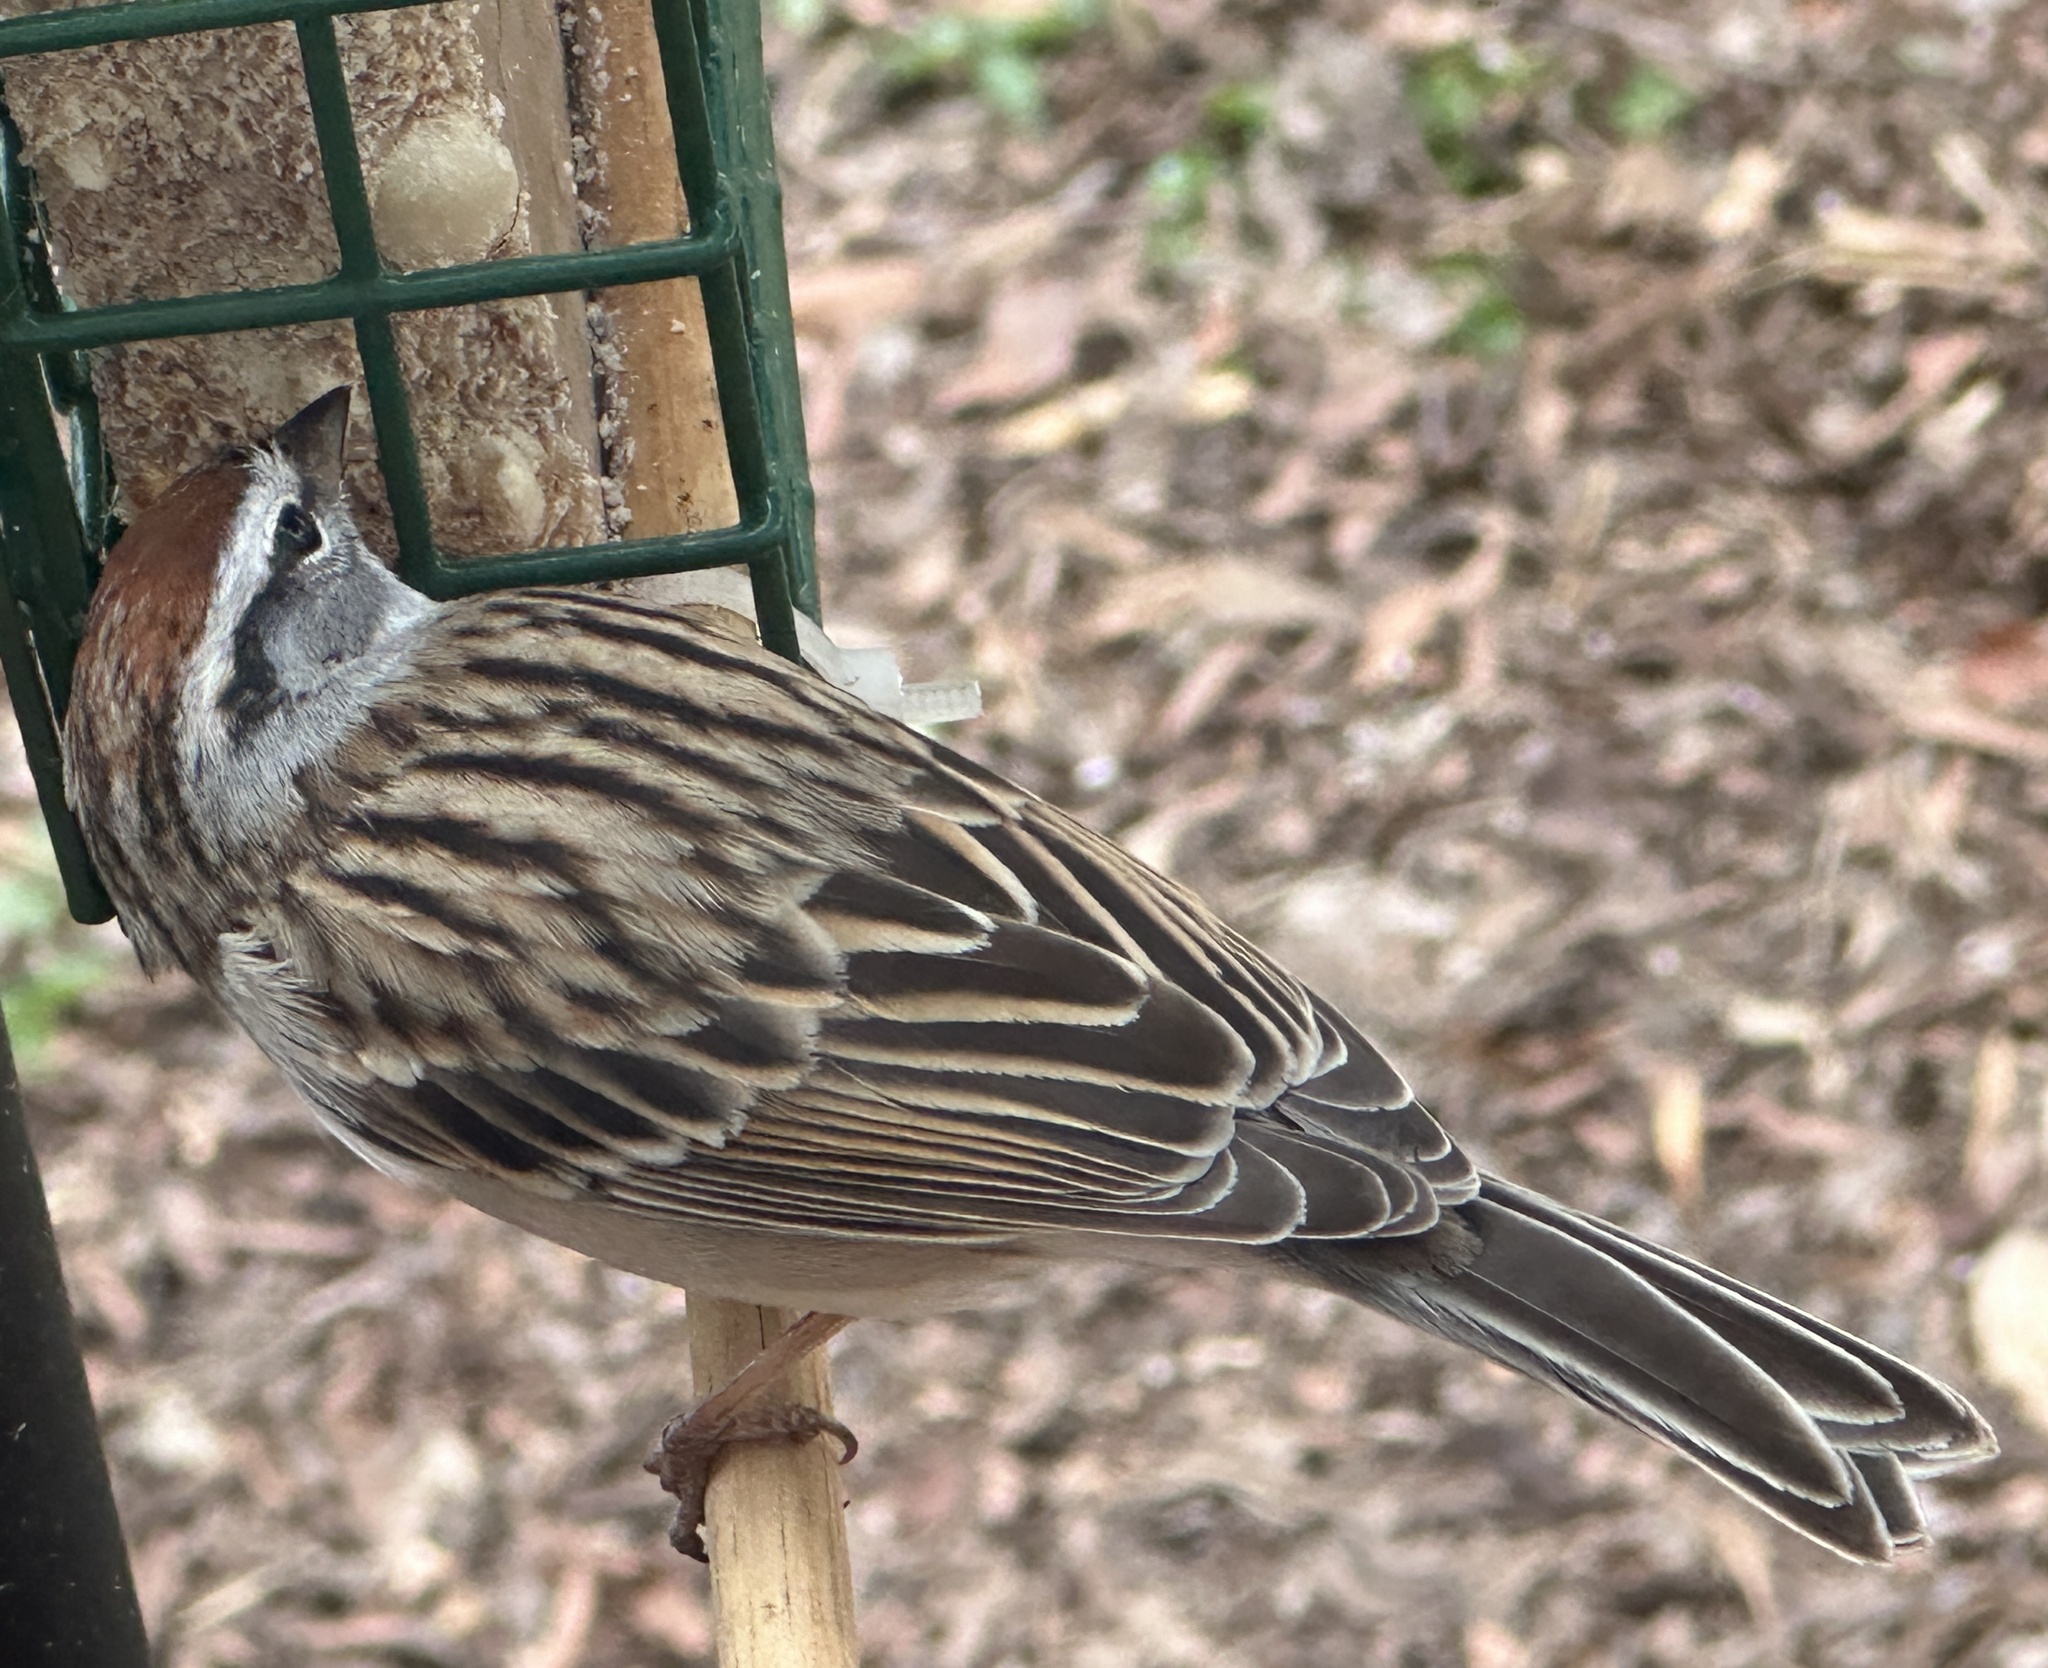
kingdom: Animalia
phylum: Chordata
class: Aves
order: Passeriformes
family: Passerellidae
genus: Spizella
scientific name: Spizella passerina
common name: Chipping sparrow
